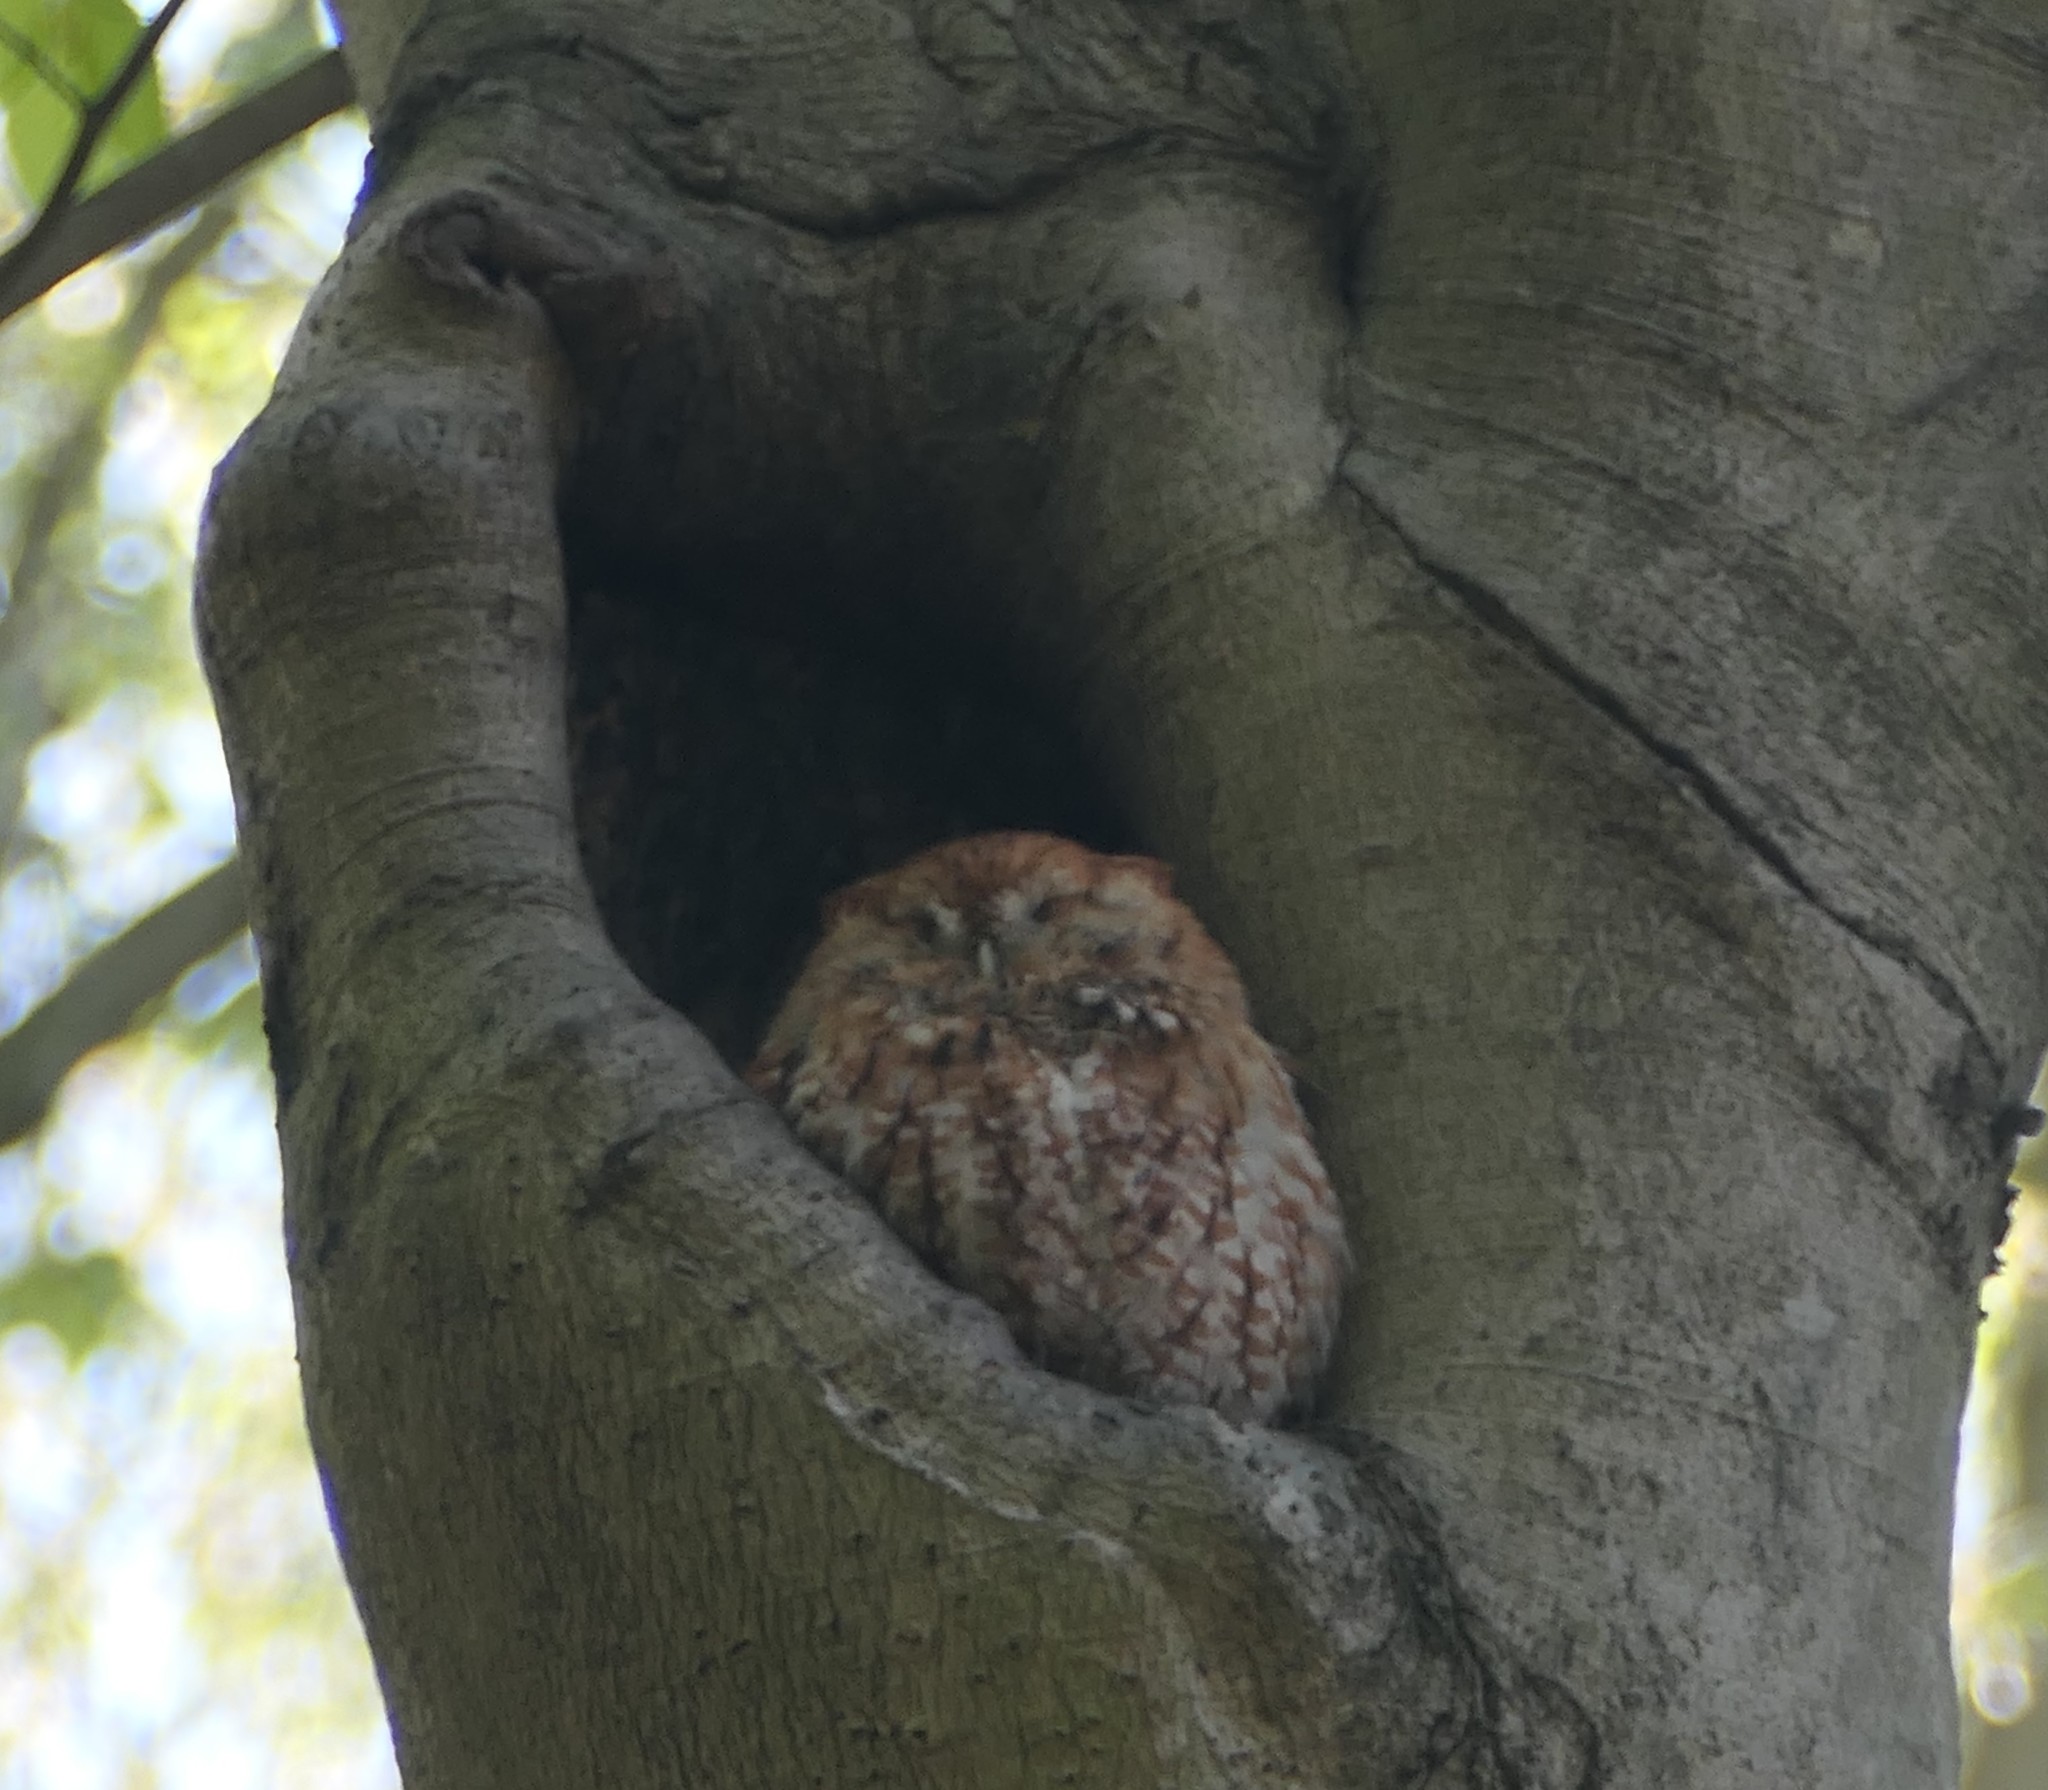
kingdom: Animalia
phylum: Chordata
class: Aves
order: Strigiformes
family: Strigidae
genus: Megascops
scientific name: Megascops asio
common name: Eastern screech-owl
